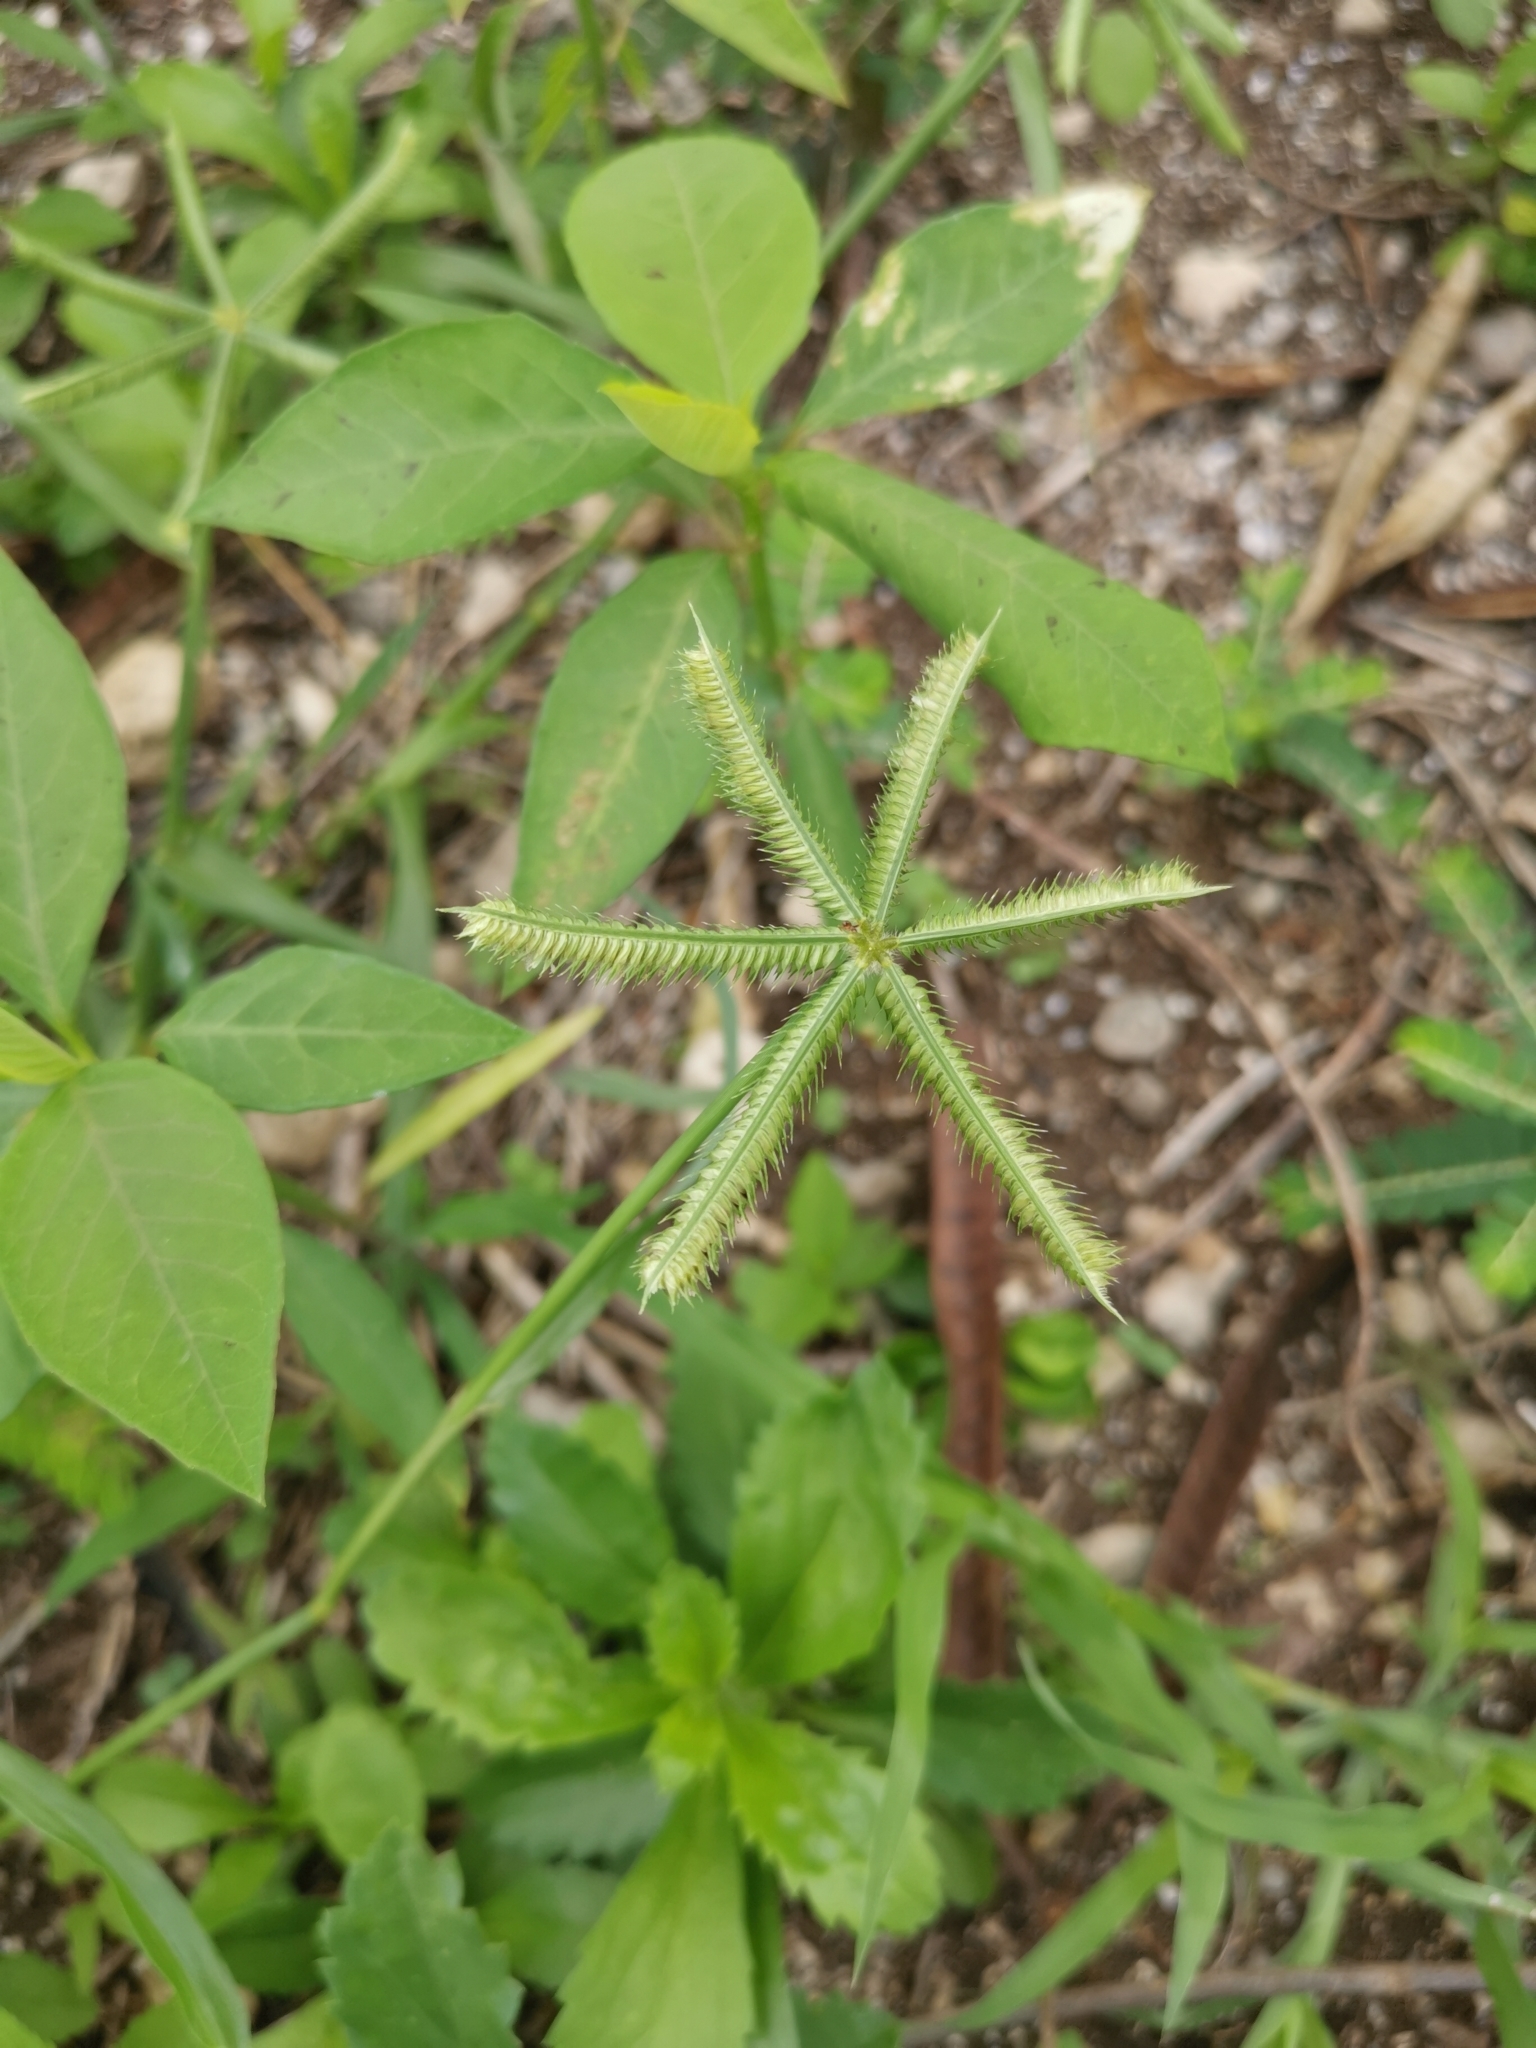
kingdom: Plantae
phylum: Tracheophyta
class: Liliopsida
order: Poales
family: Poaceae
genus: Dactyloctenium
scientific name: Dactyloctenium aegyptium
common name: Egyptian grass
